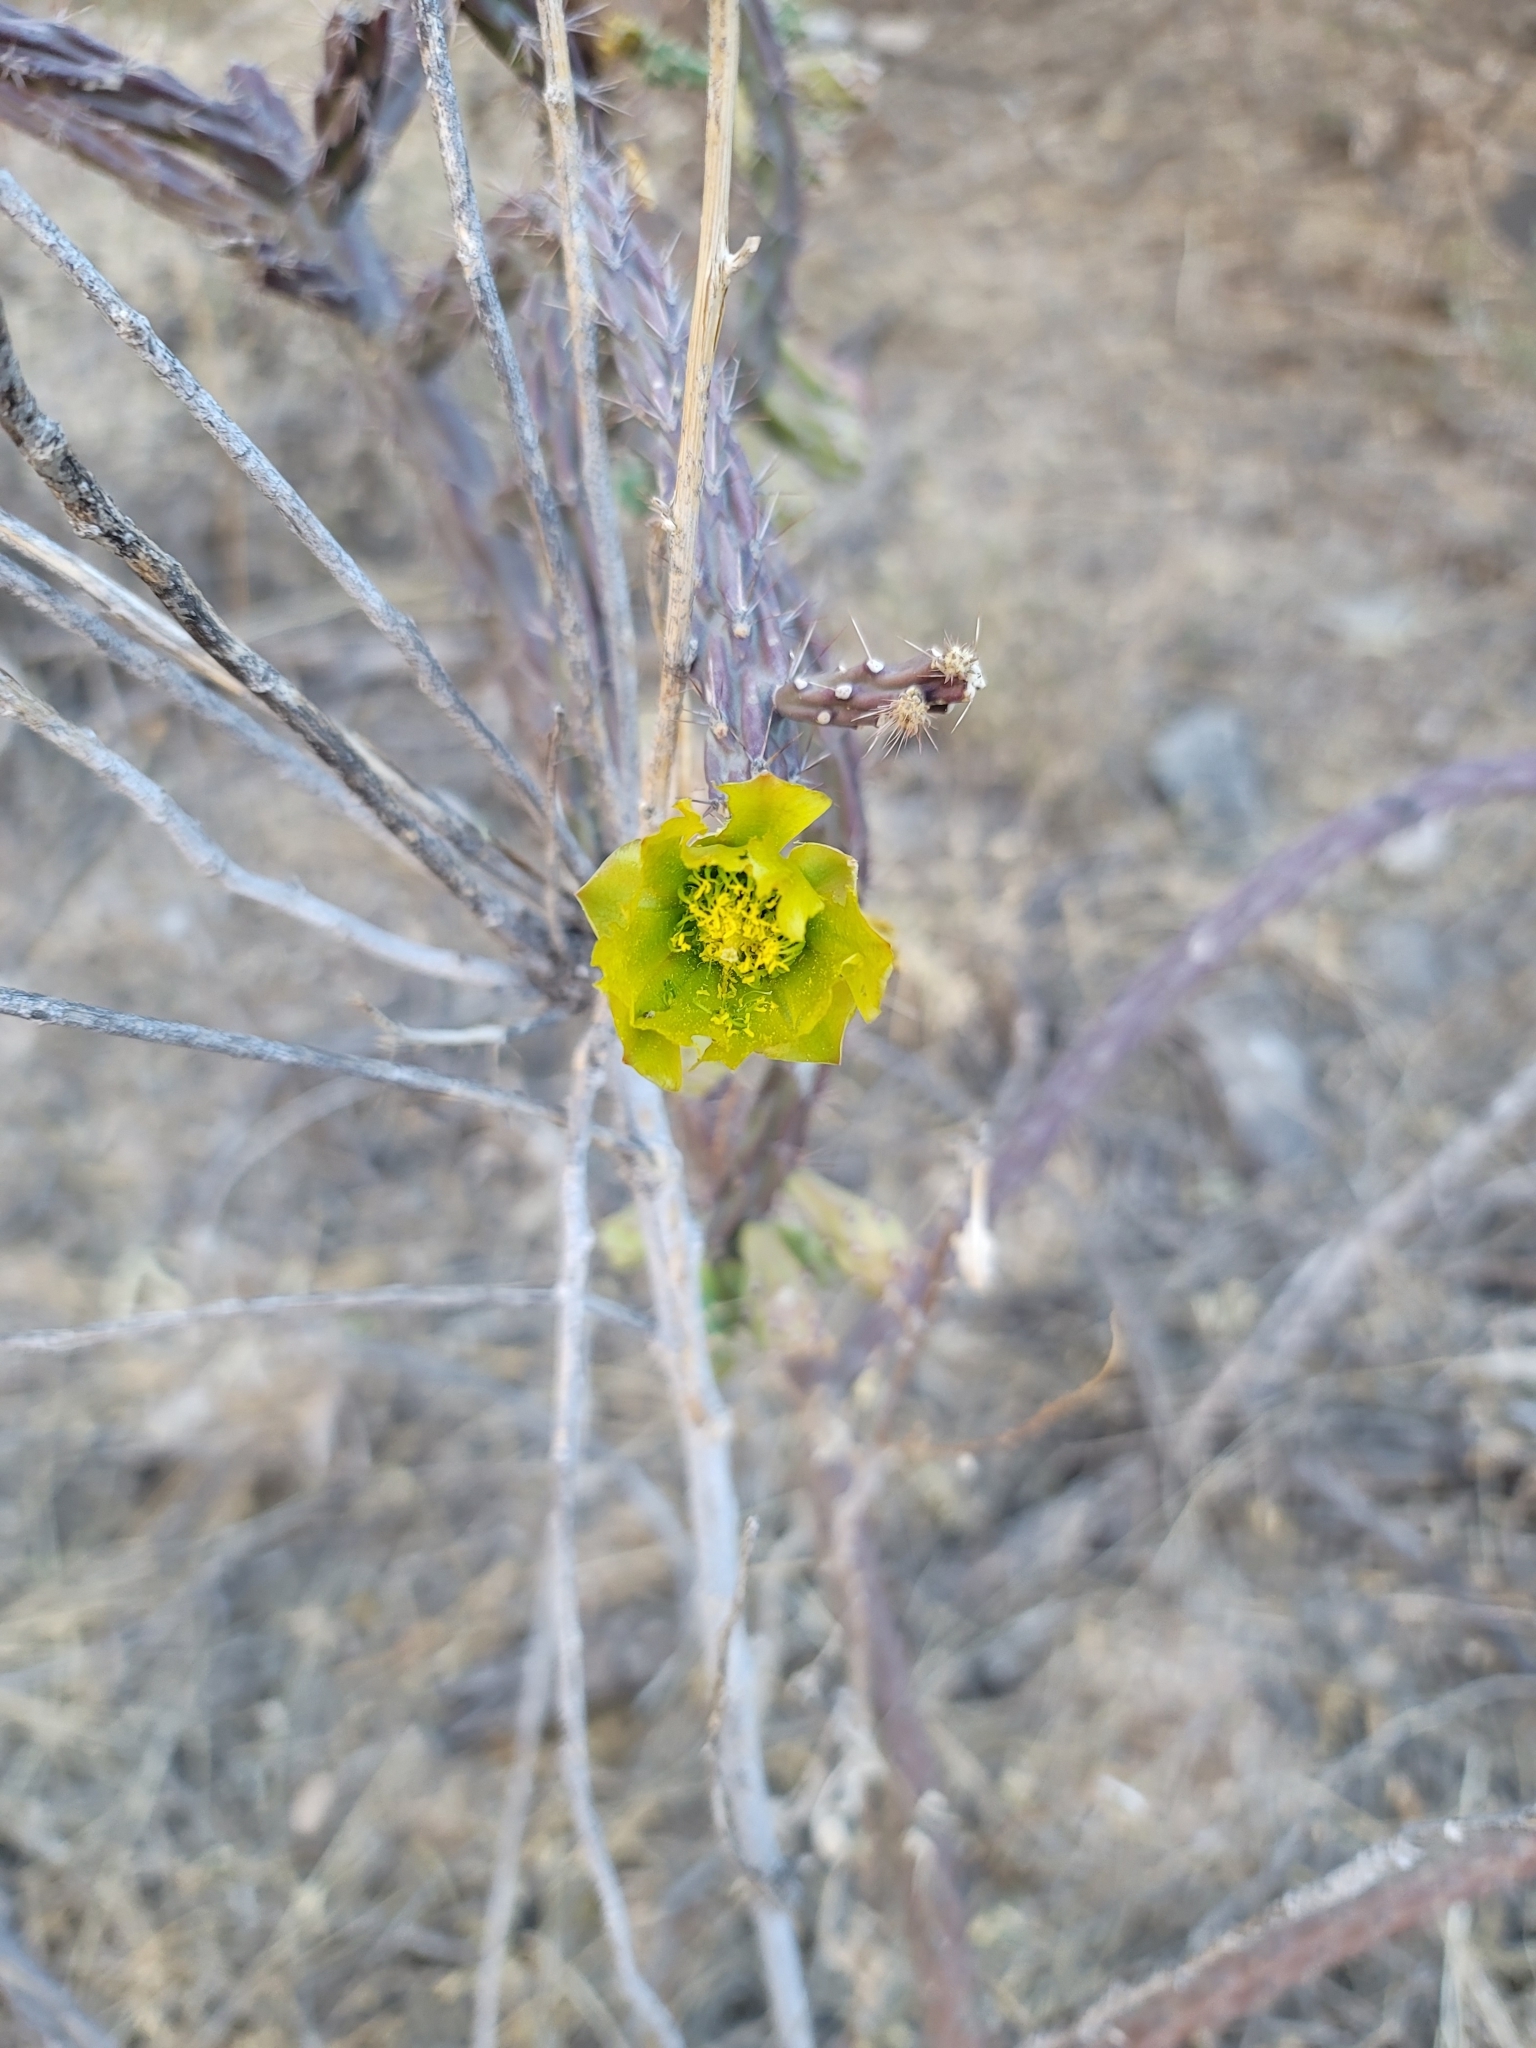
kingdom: Plantae
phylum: Tracheophyta
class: Magnoliopsida
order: Caryophyllales
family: Cactaceae
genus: Cylindropuntia
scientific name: Cylindropuntia thurberi
